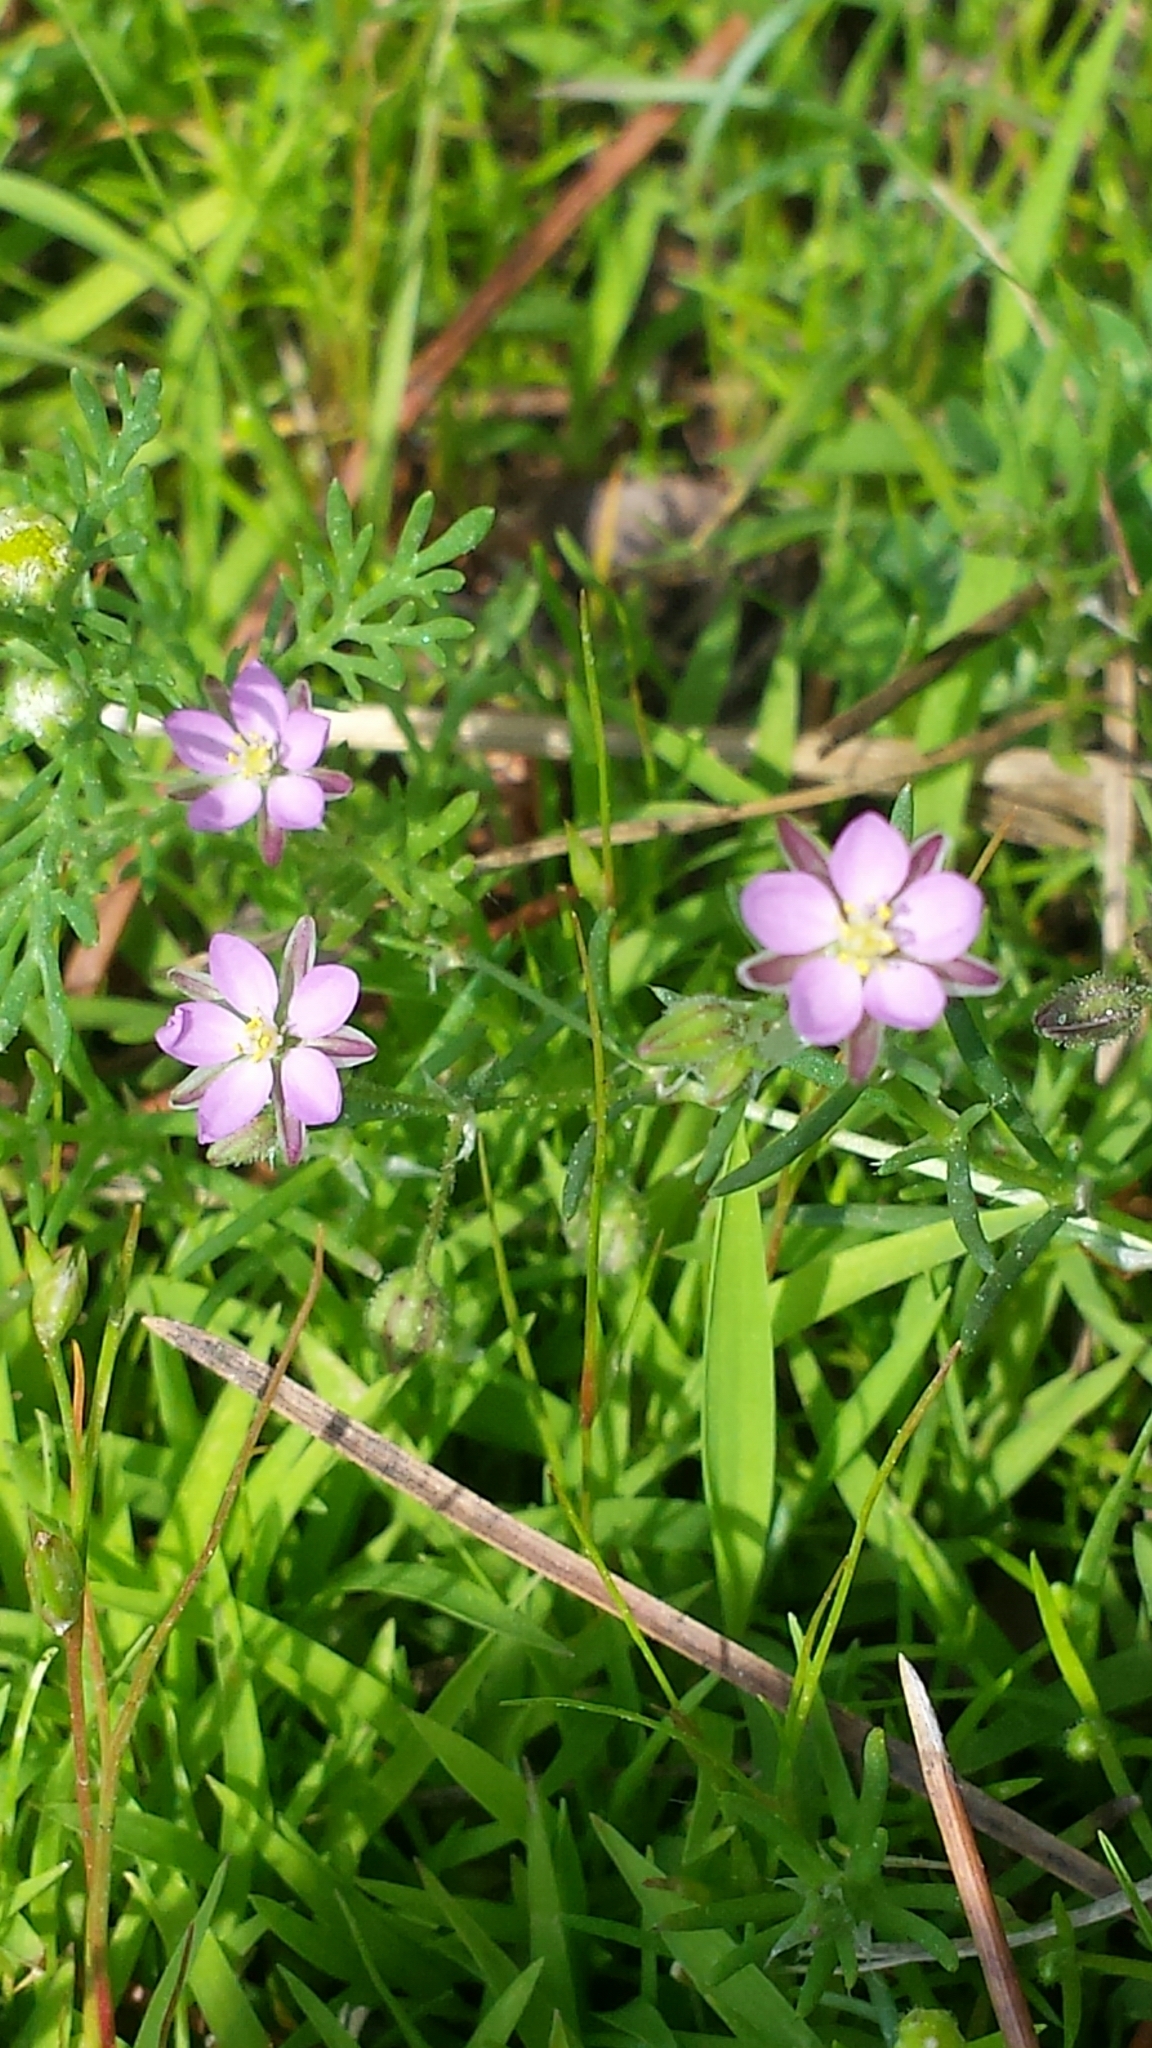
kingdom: Plantae
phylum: Tracheophyta
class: Magnoliopsida
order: Caryophyllales
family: Caryophyllaceae
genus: Spergularia
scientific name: Spergularia rubra
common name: Red sand-spurrey
